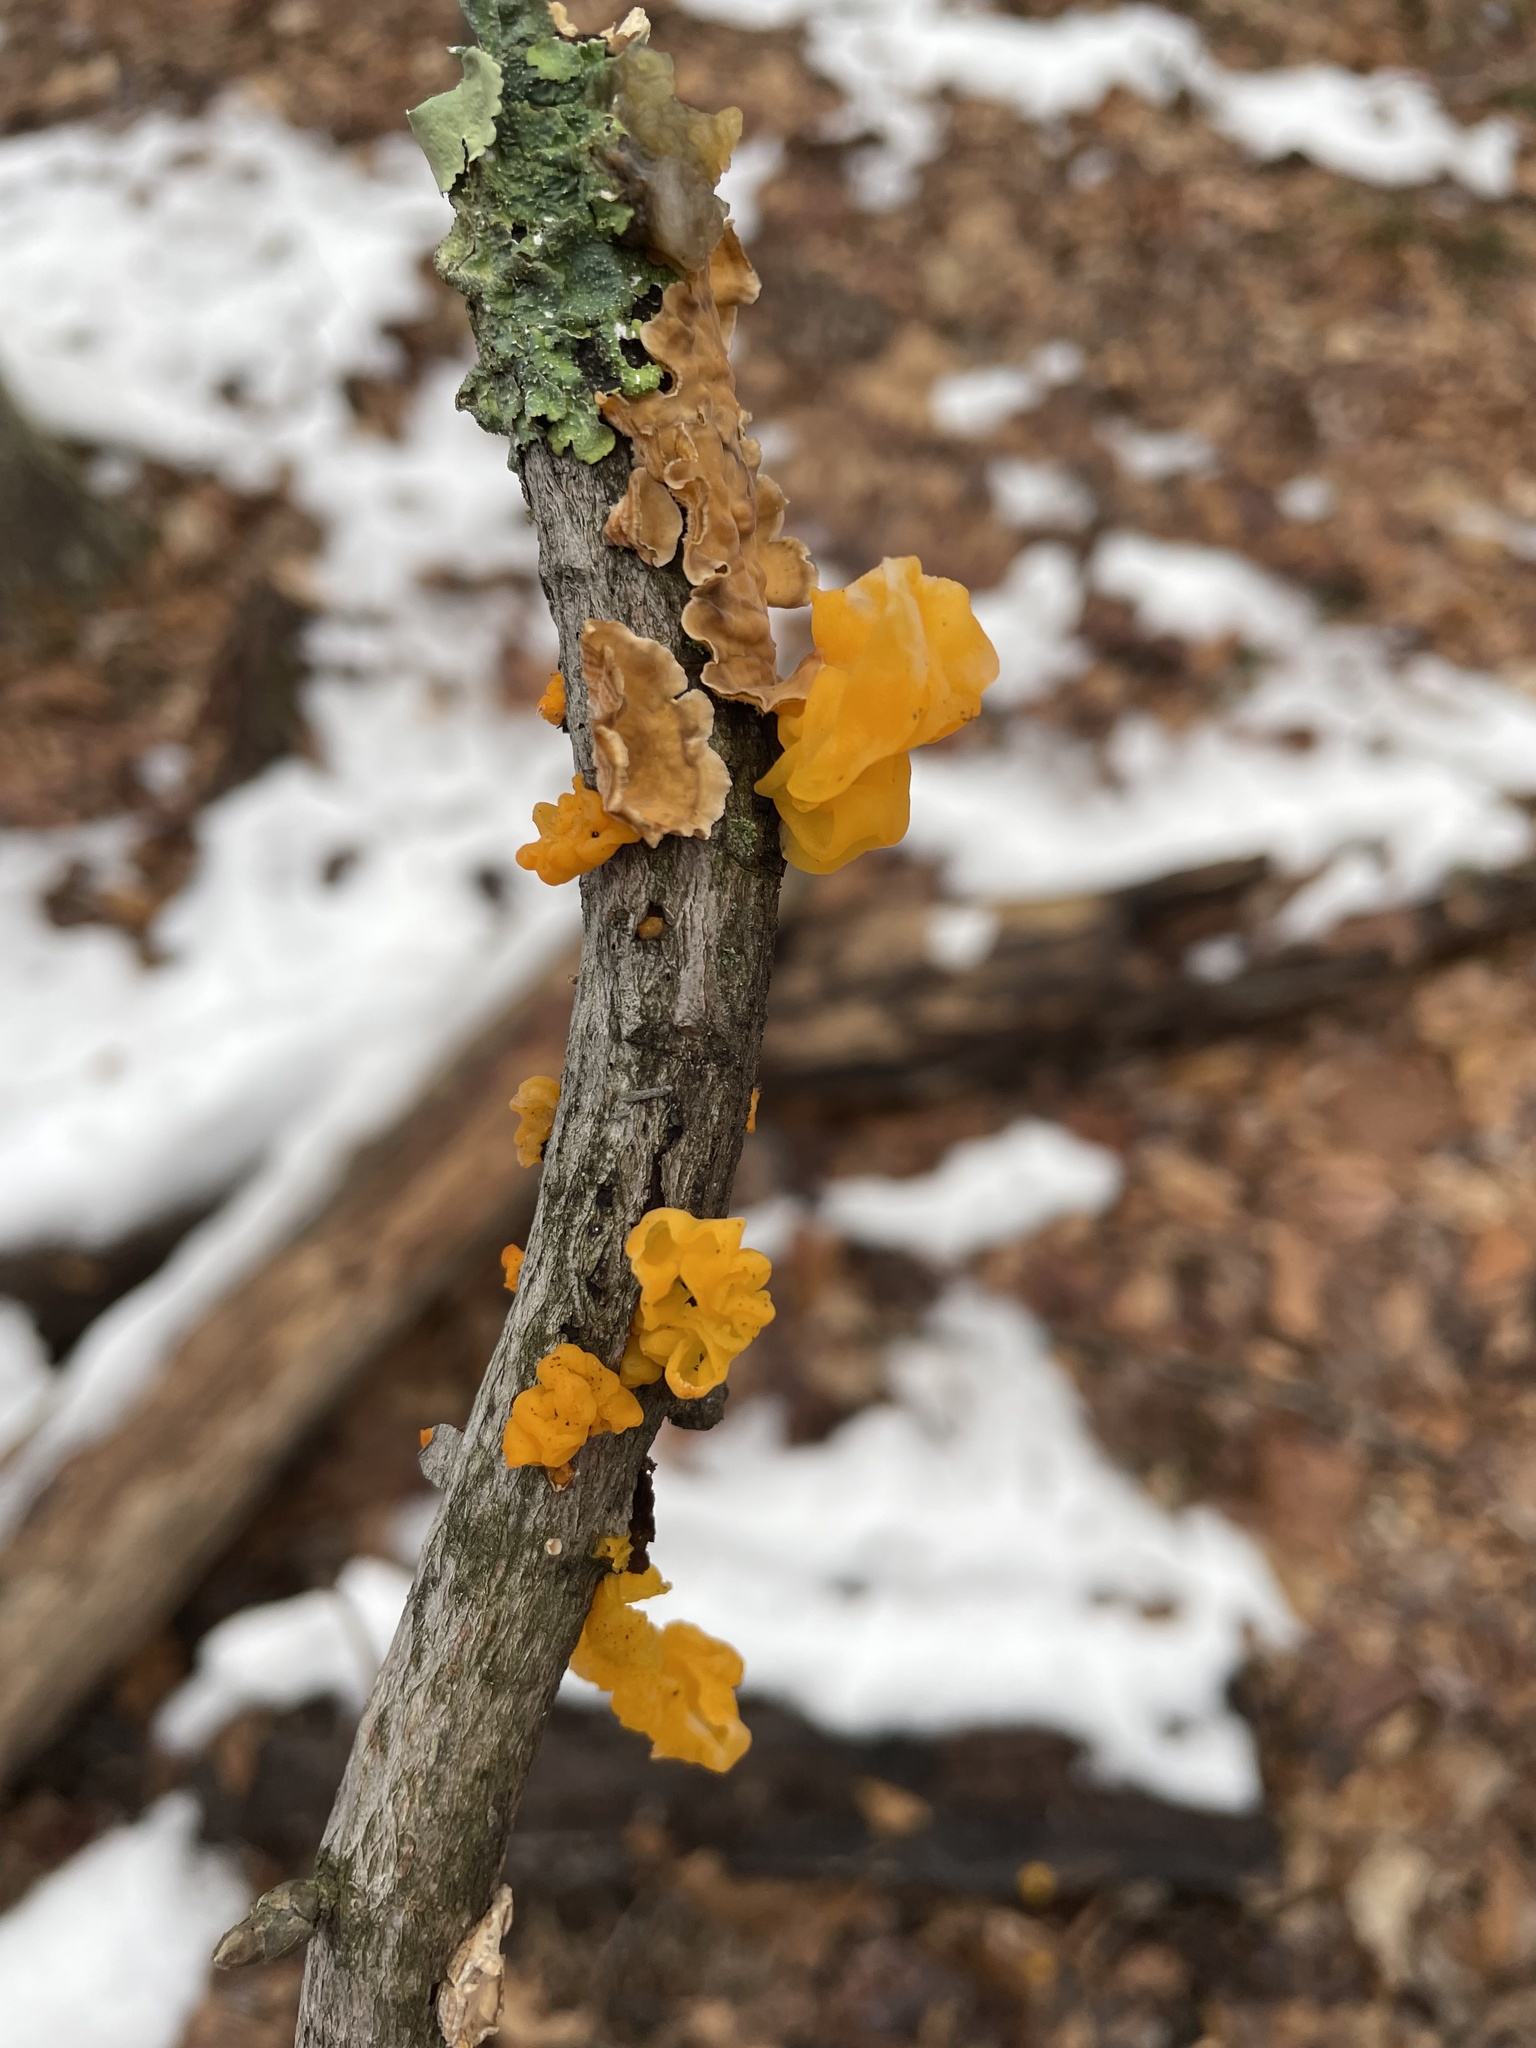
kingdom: Fungi
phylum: Basidiomycota
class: Tremellomycetes
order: Tremellales
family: Naemateliaceae
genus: Naematelia
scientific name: Naematelia aurantia
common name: Golden ear
